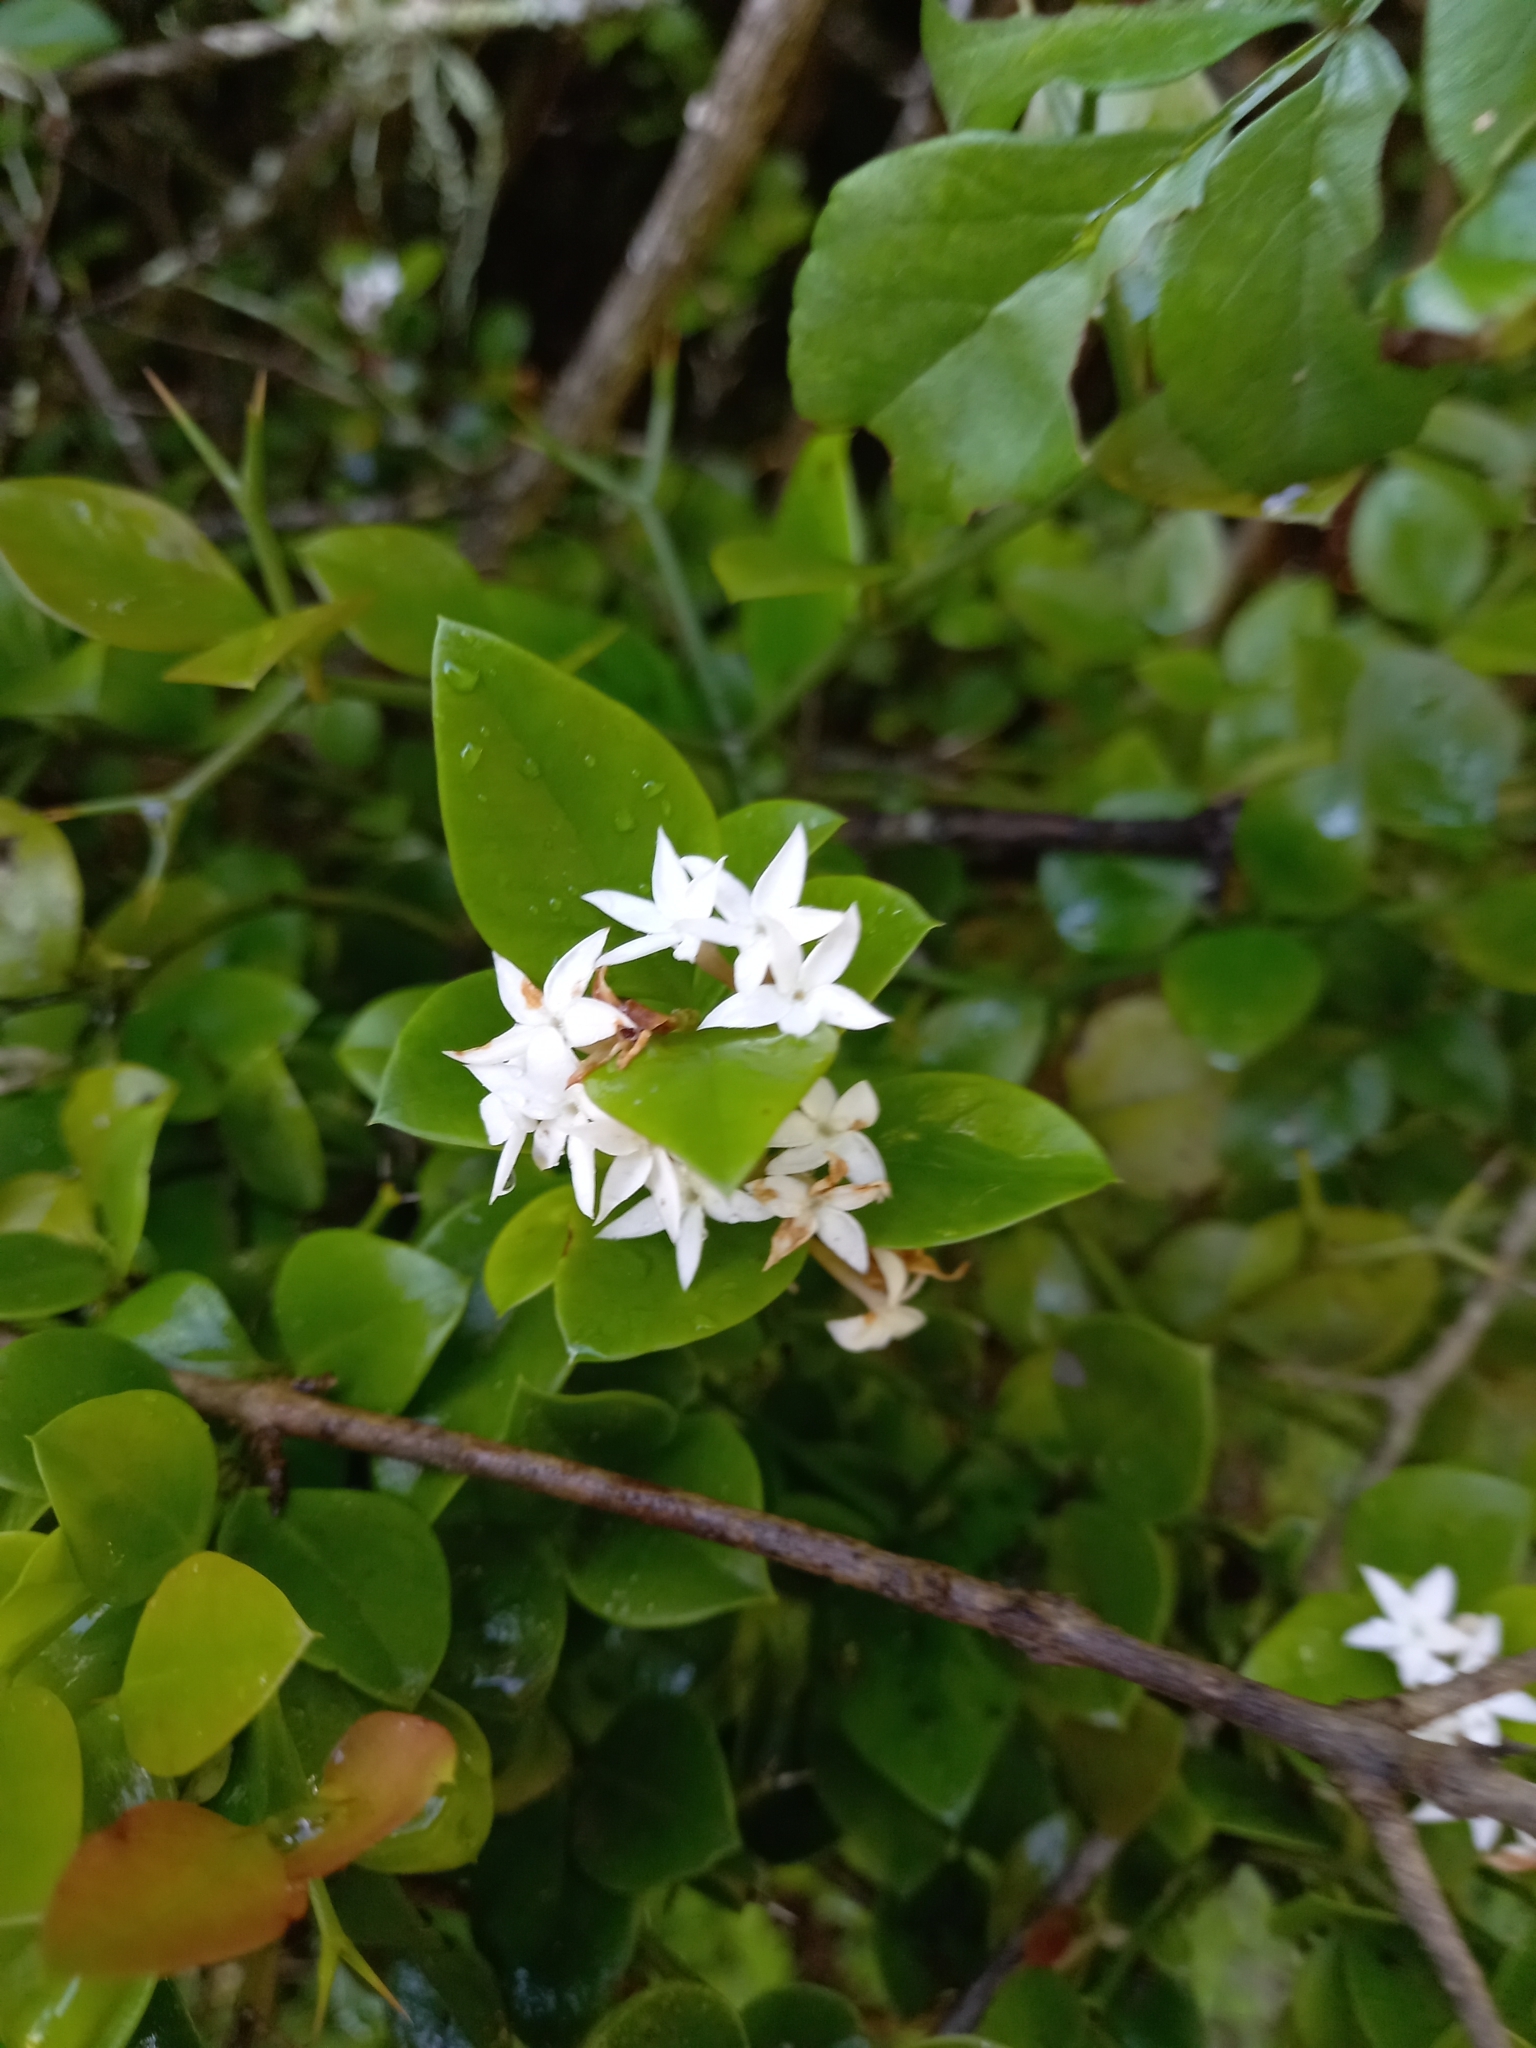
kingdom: Plantae
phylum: Tracheophyta
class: Magnoliopsida
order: Gentianales
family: Apocynaceae
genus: Carissa
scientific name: Carissa bispinosa
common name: Forest num-num
